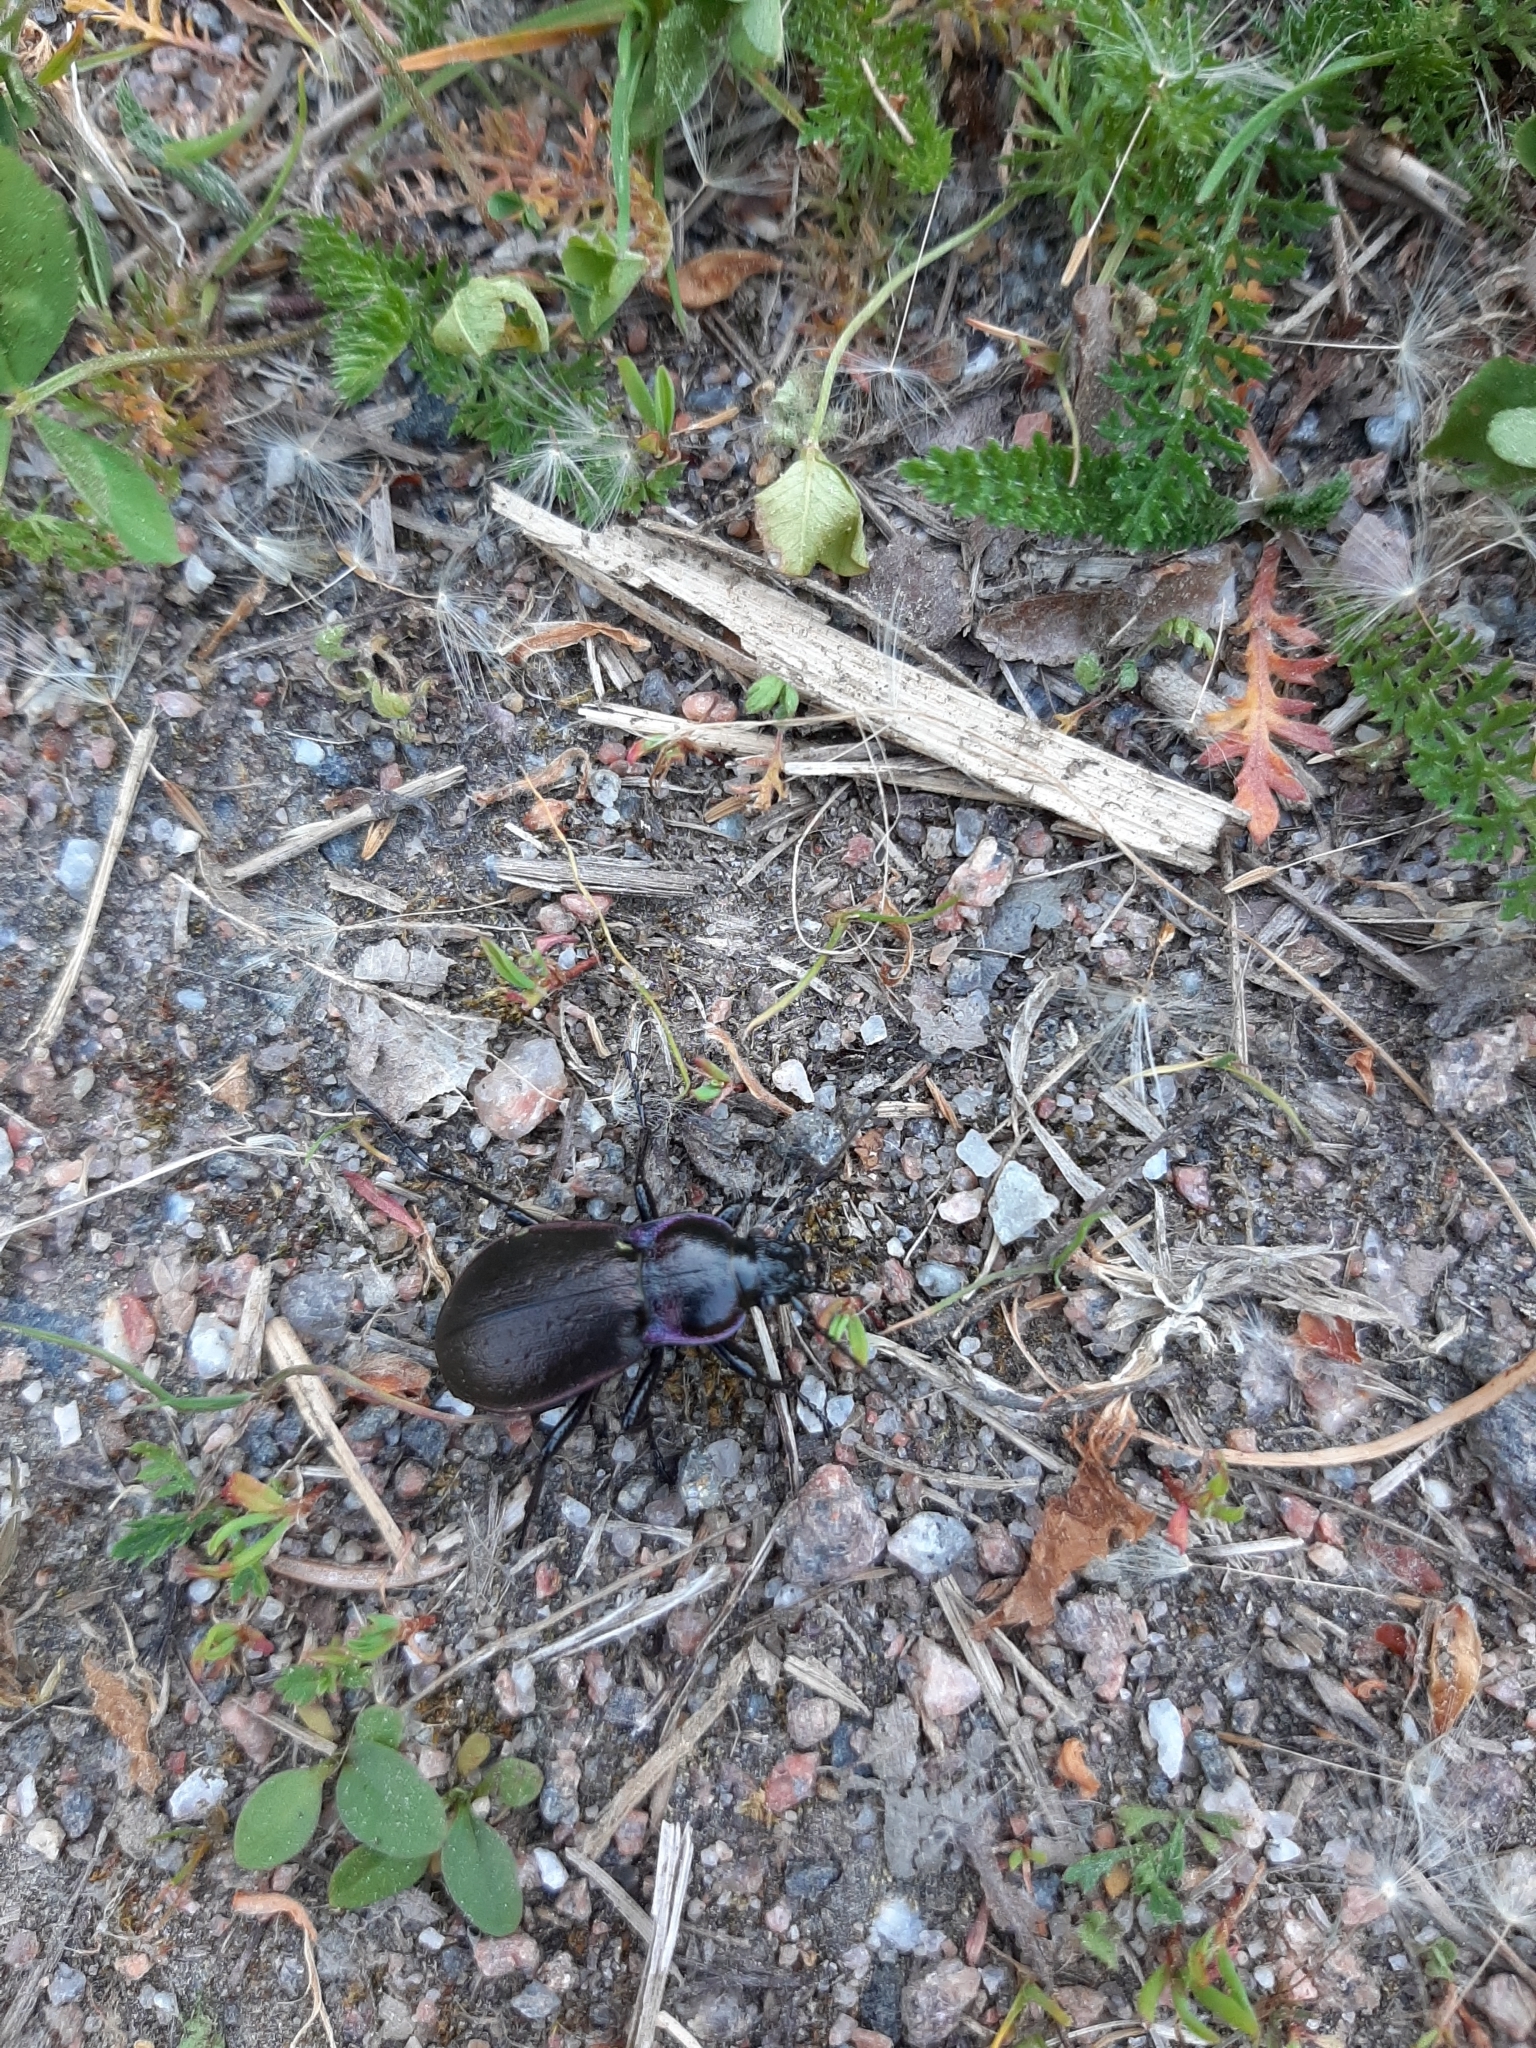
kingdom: Animalia
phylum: Arthropoda
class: Insecta
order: Coleoptera
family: Carabidae
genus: Carabus
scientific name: Carabus nemoralis
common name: European ground beetle
